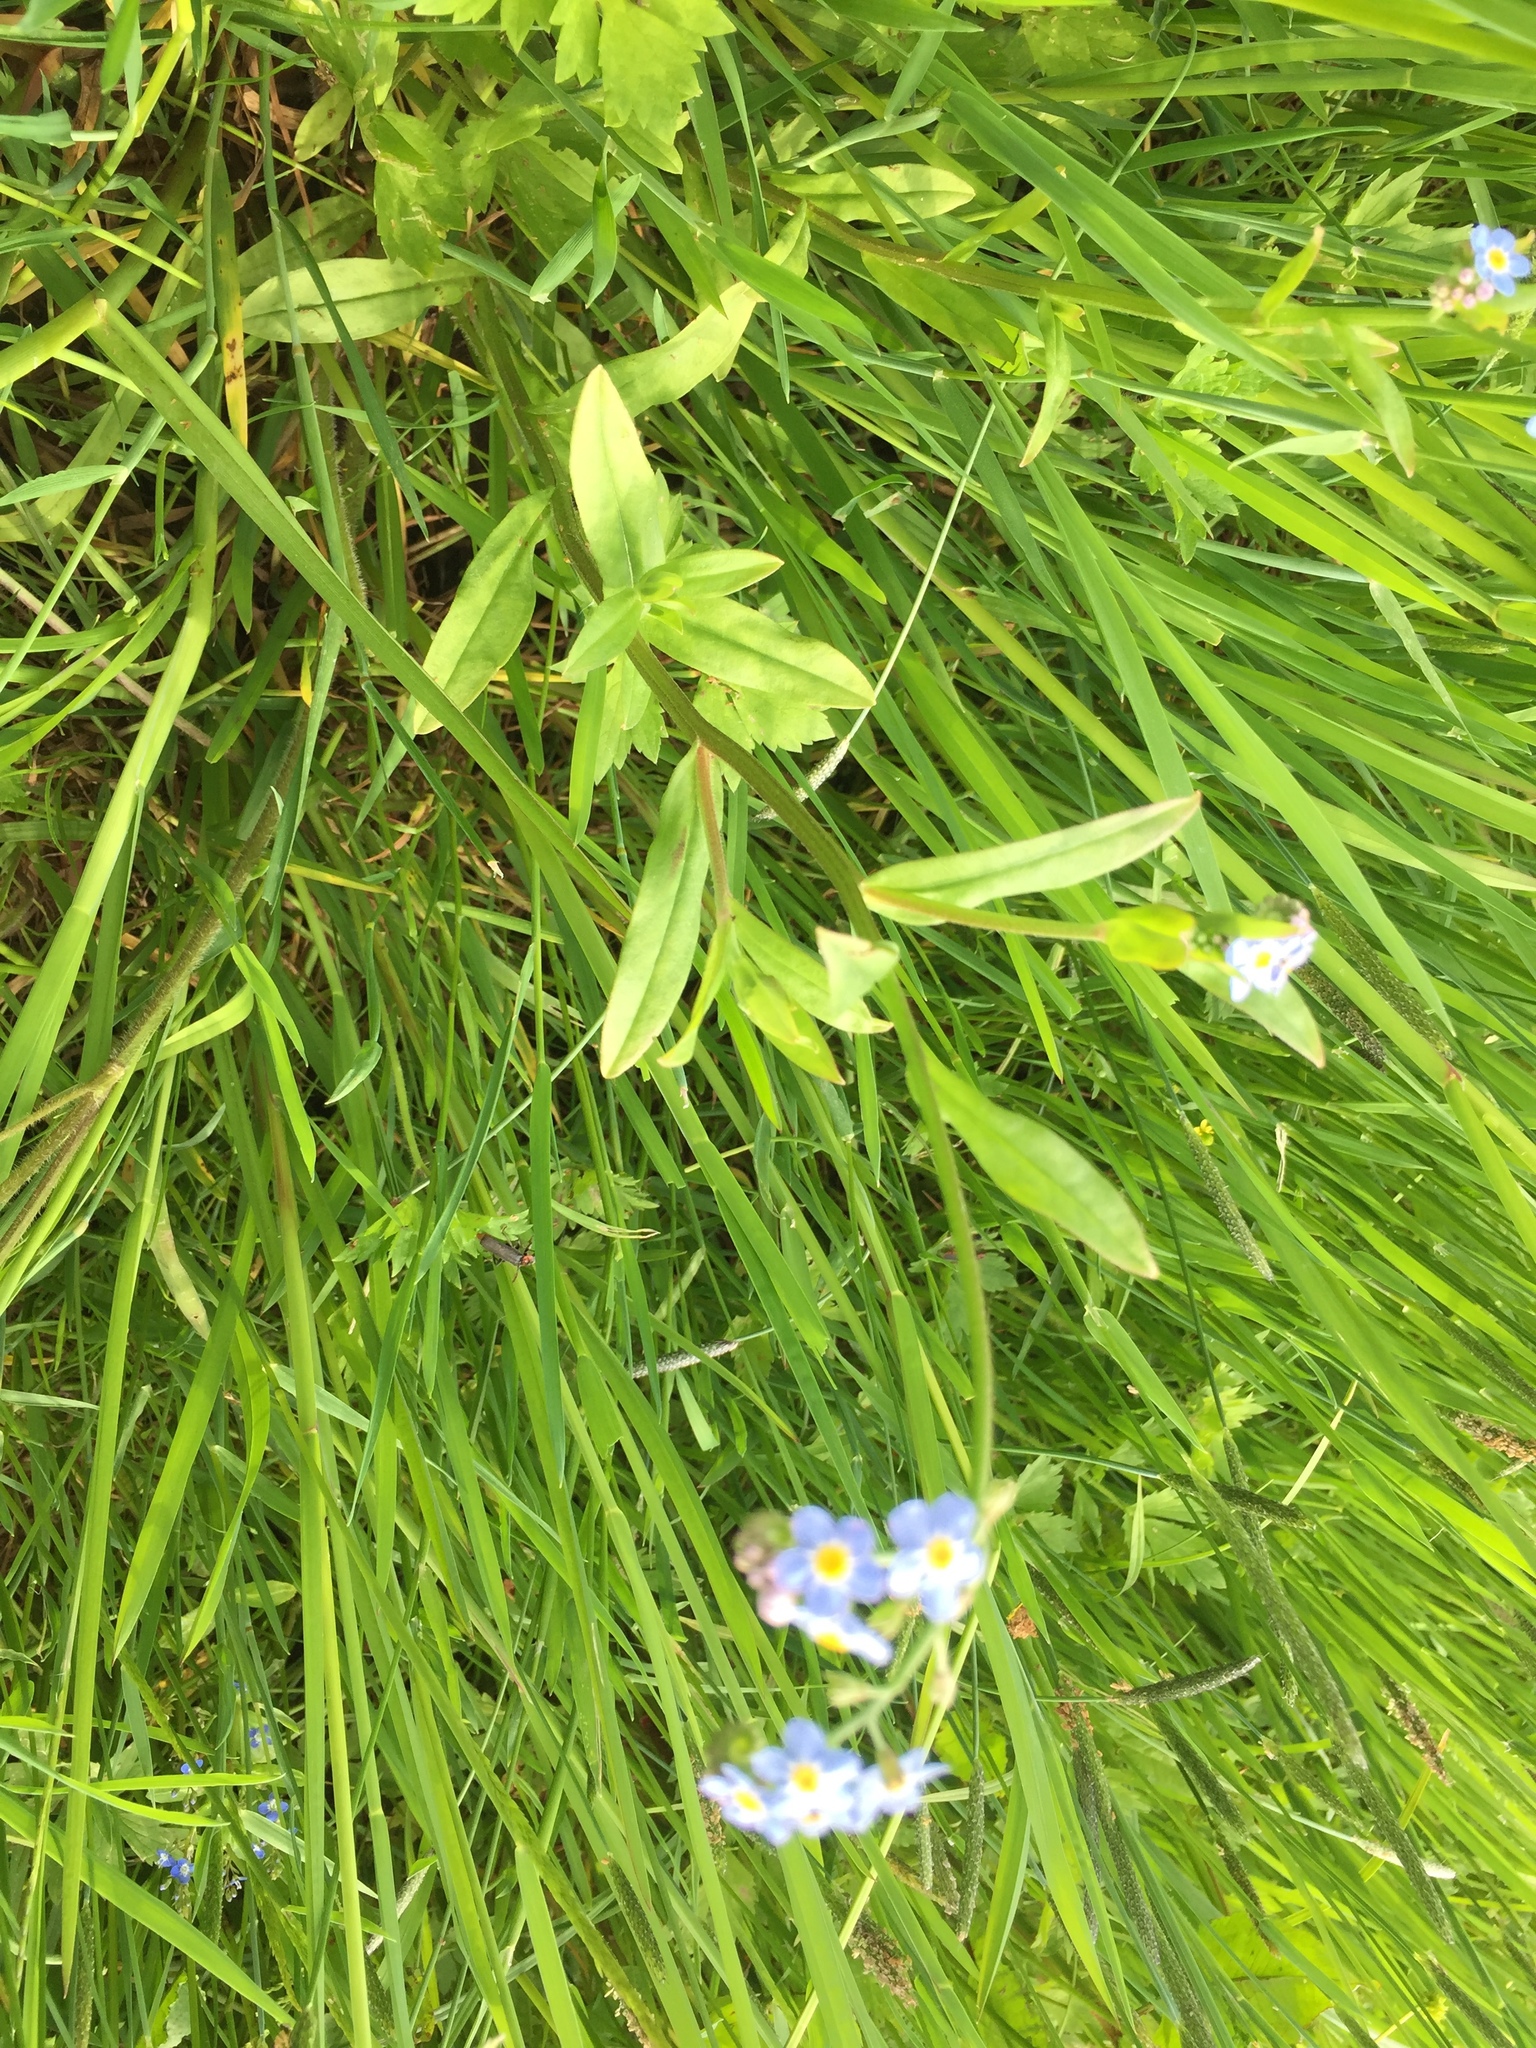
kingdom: Plantae
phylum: Tracheophyta
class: Magnoliopsida
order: Boraginales
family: Boraginaceae
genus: Myosotis
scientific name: Myosotis scorpioides
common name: Water forget-me-not
